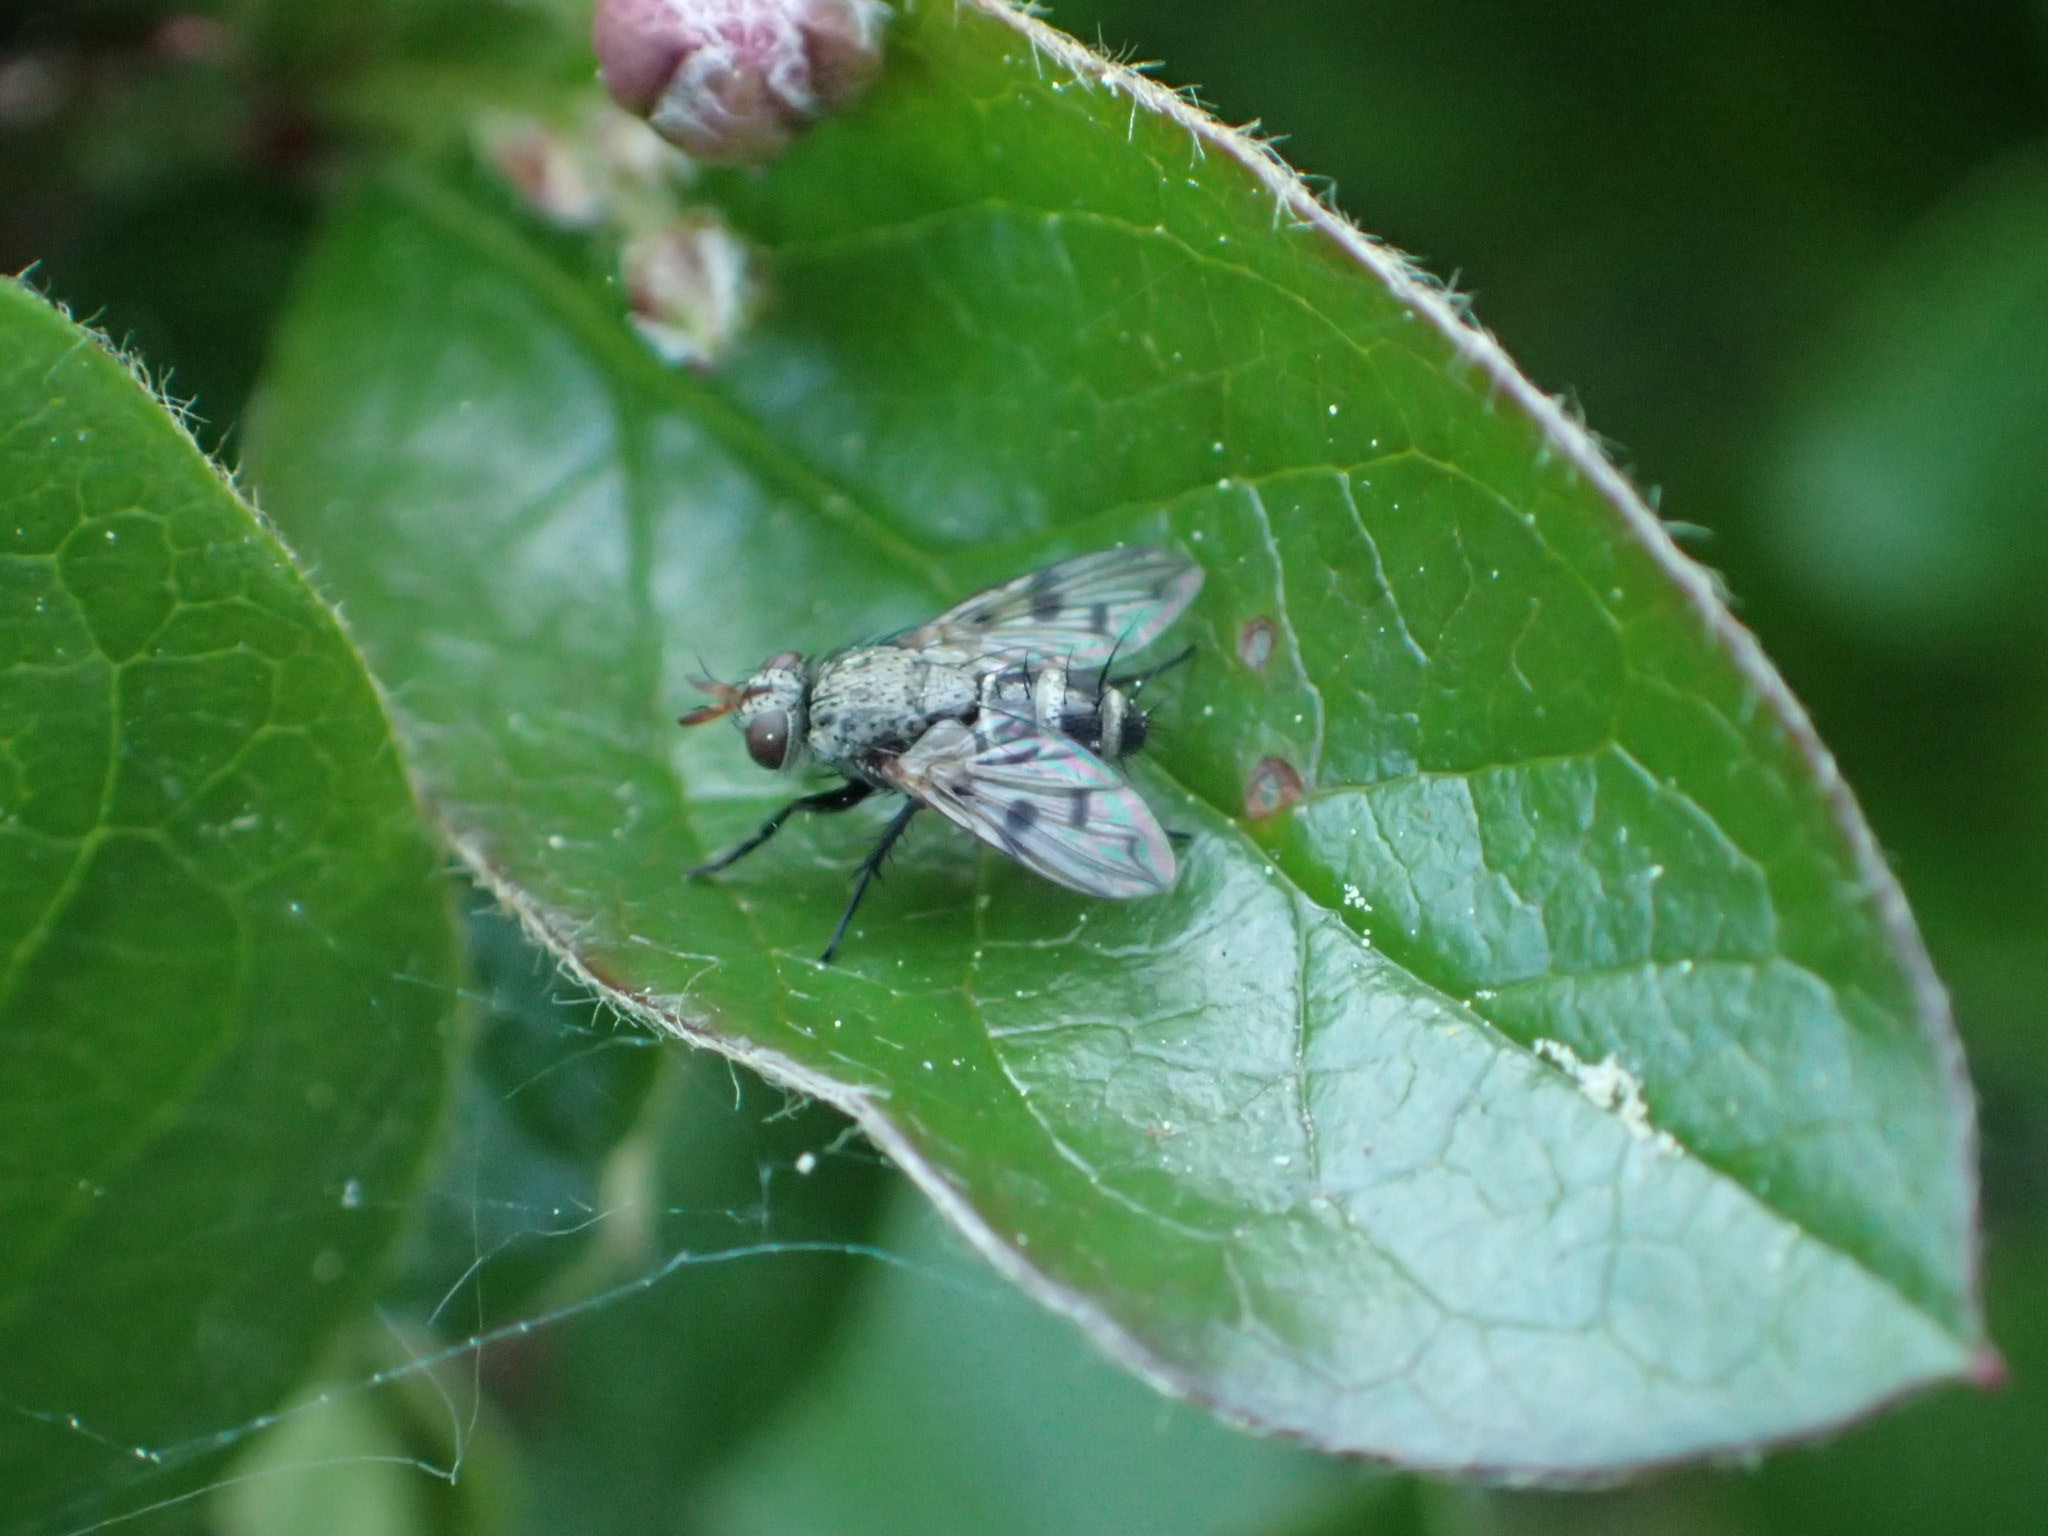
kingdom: Animalia
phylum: Arthropoda
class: Insecta
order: Diptera
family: Tachinidae
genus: Lypha
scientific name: Lypha harringtoni
